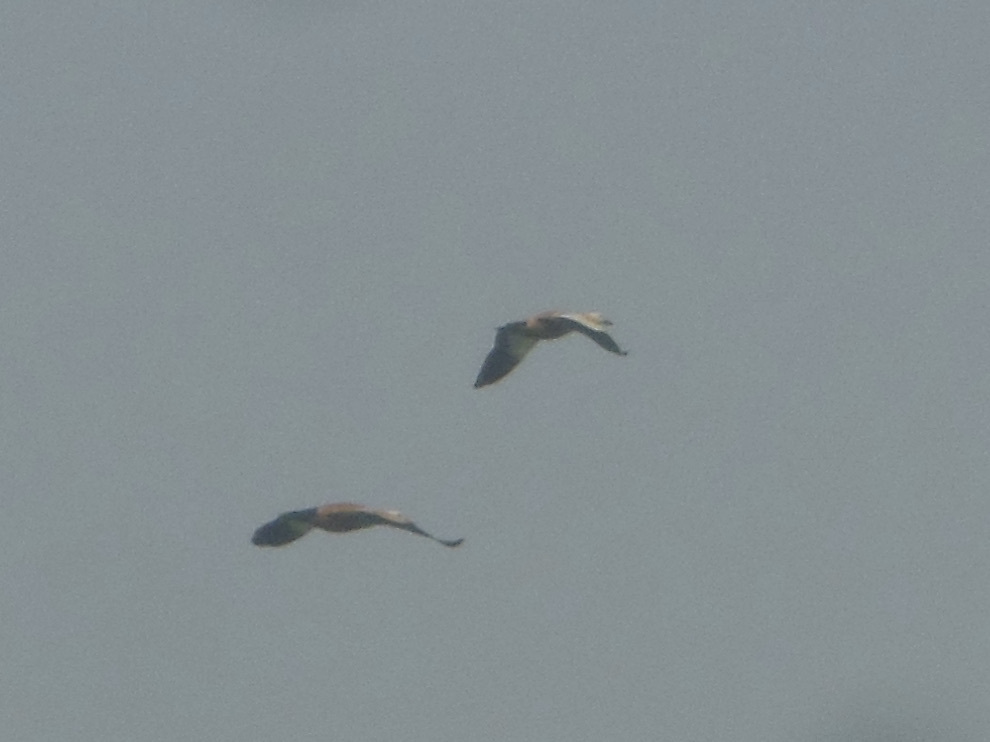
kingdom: Animalia
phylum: Chordata
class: Aves
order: Anseriformes
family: Anatidae
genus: Tadorna
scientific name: Tadorna ferruginea
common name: Ruddy shelduck
